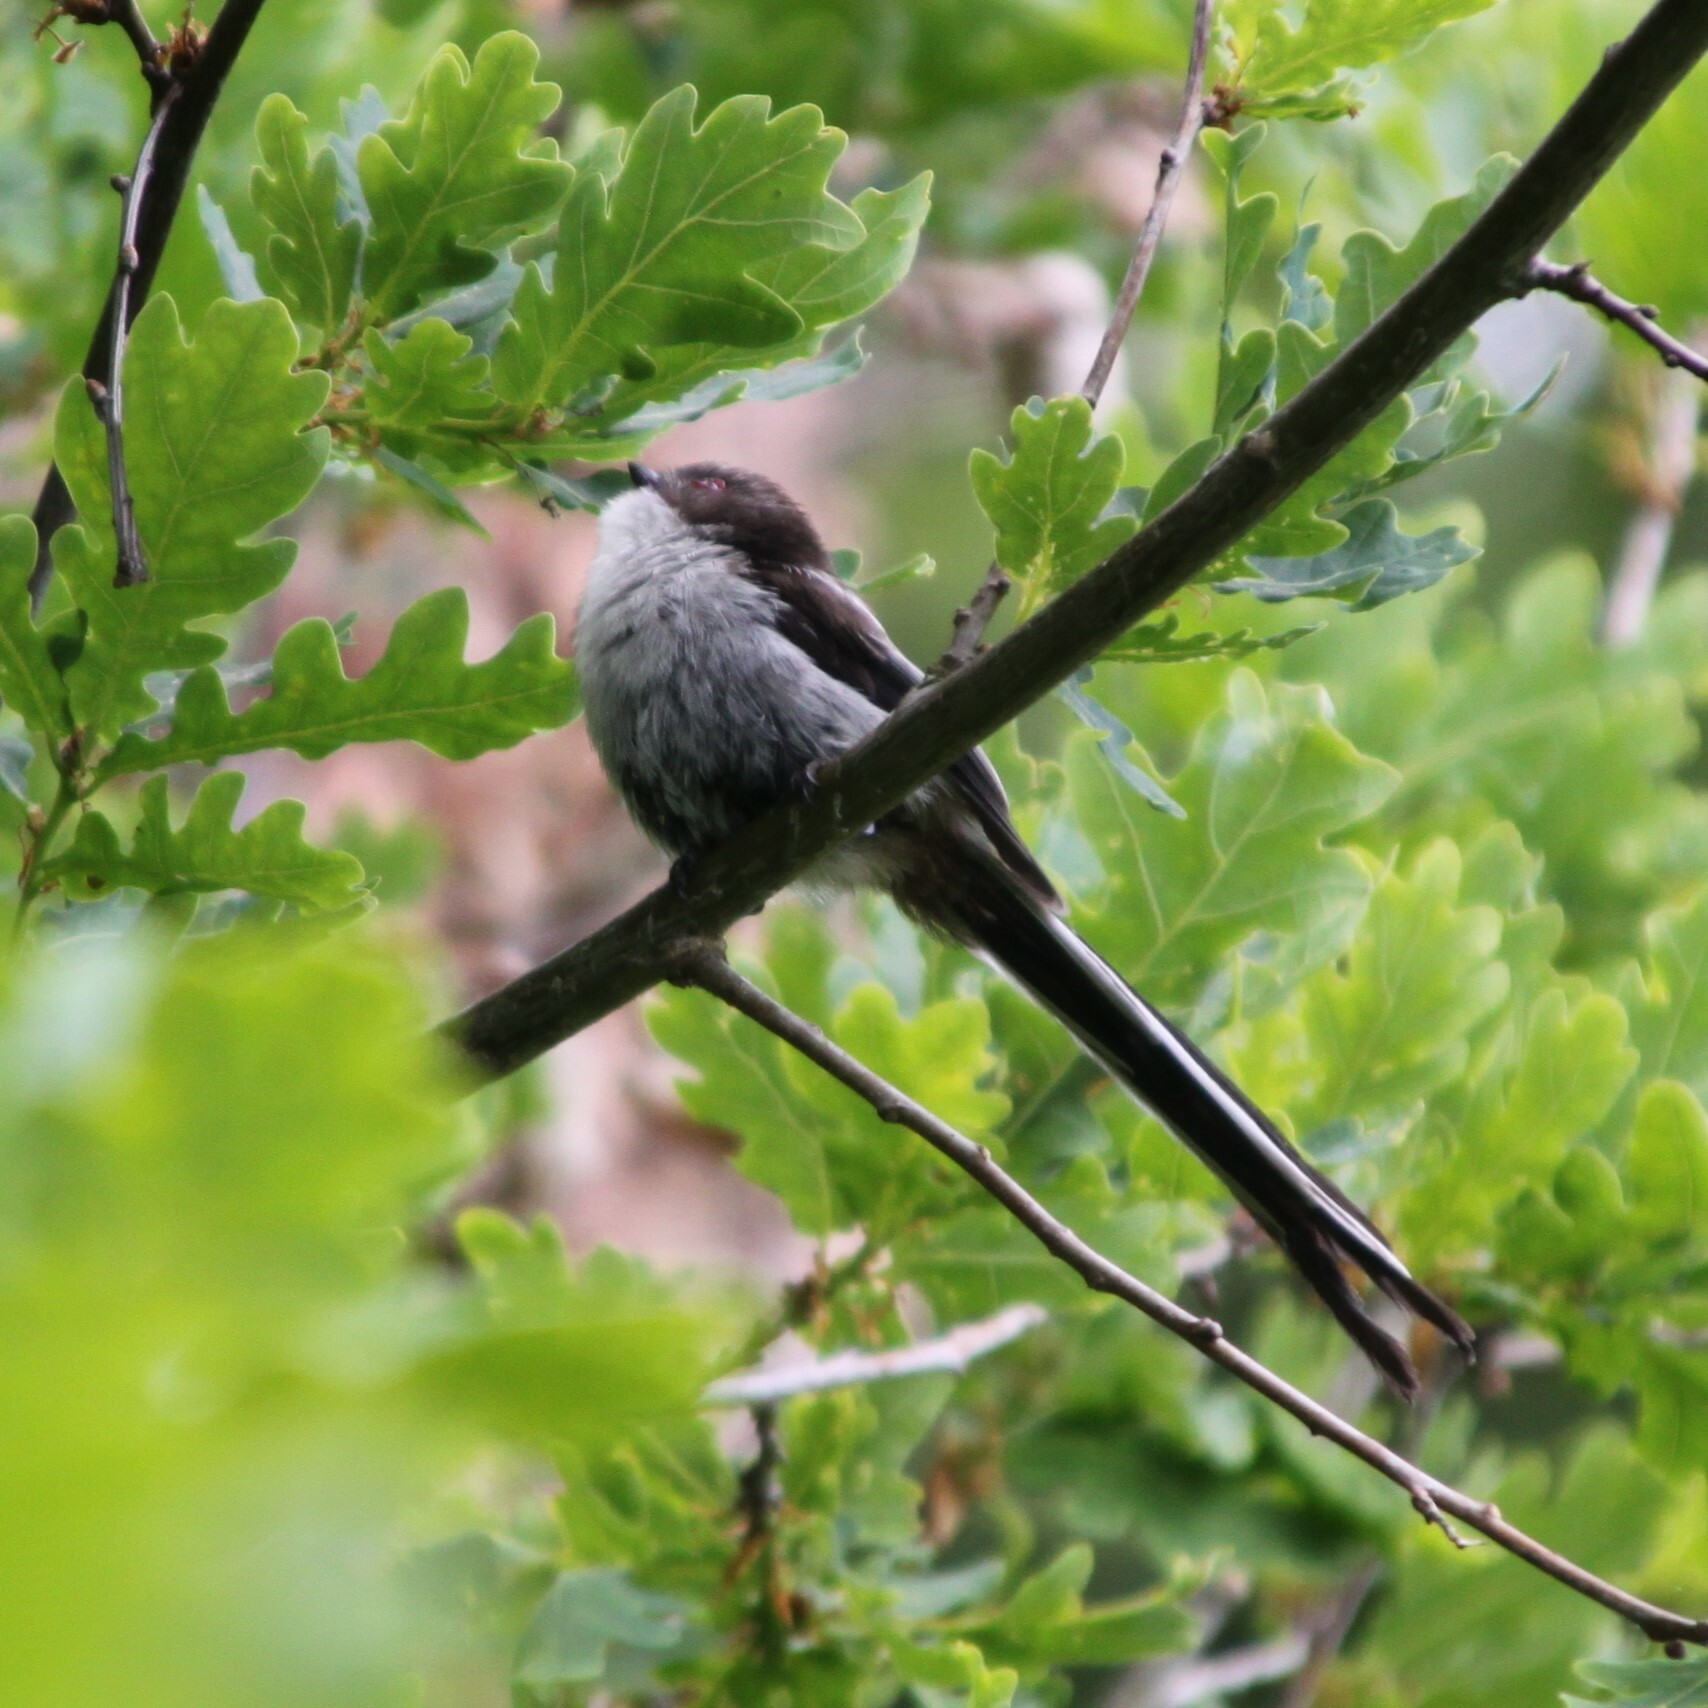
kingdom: Animalia
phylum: Chordata
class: Aves
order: Passeriformes
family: Aegithalidae
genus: Aegithalos
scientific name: Aegithalos caudatus
